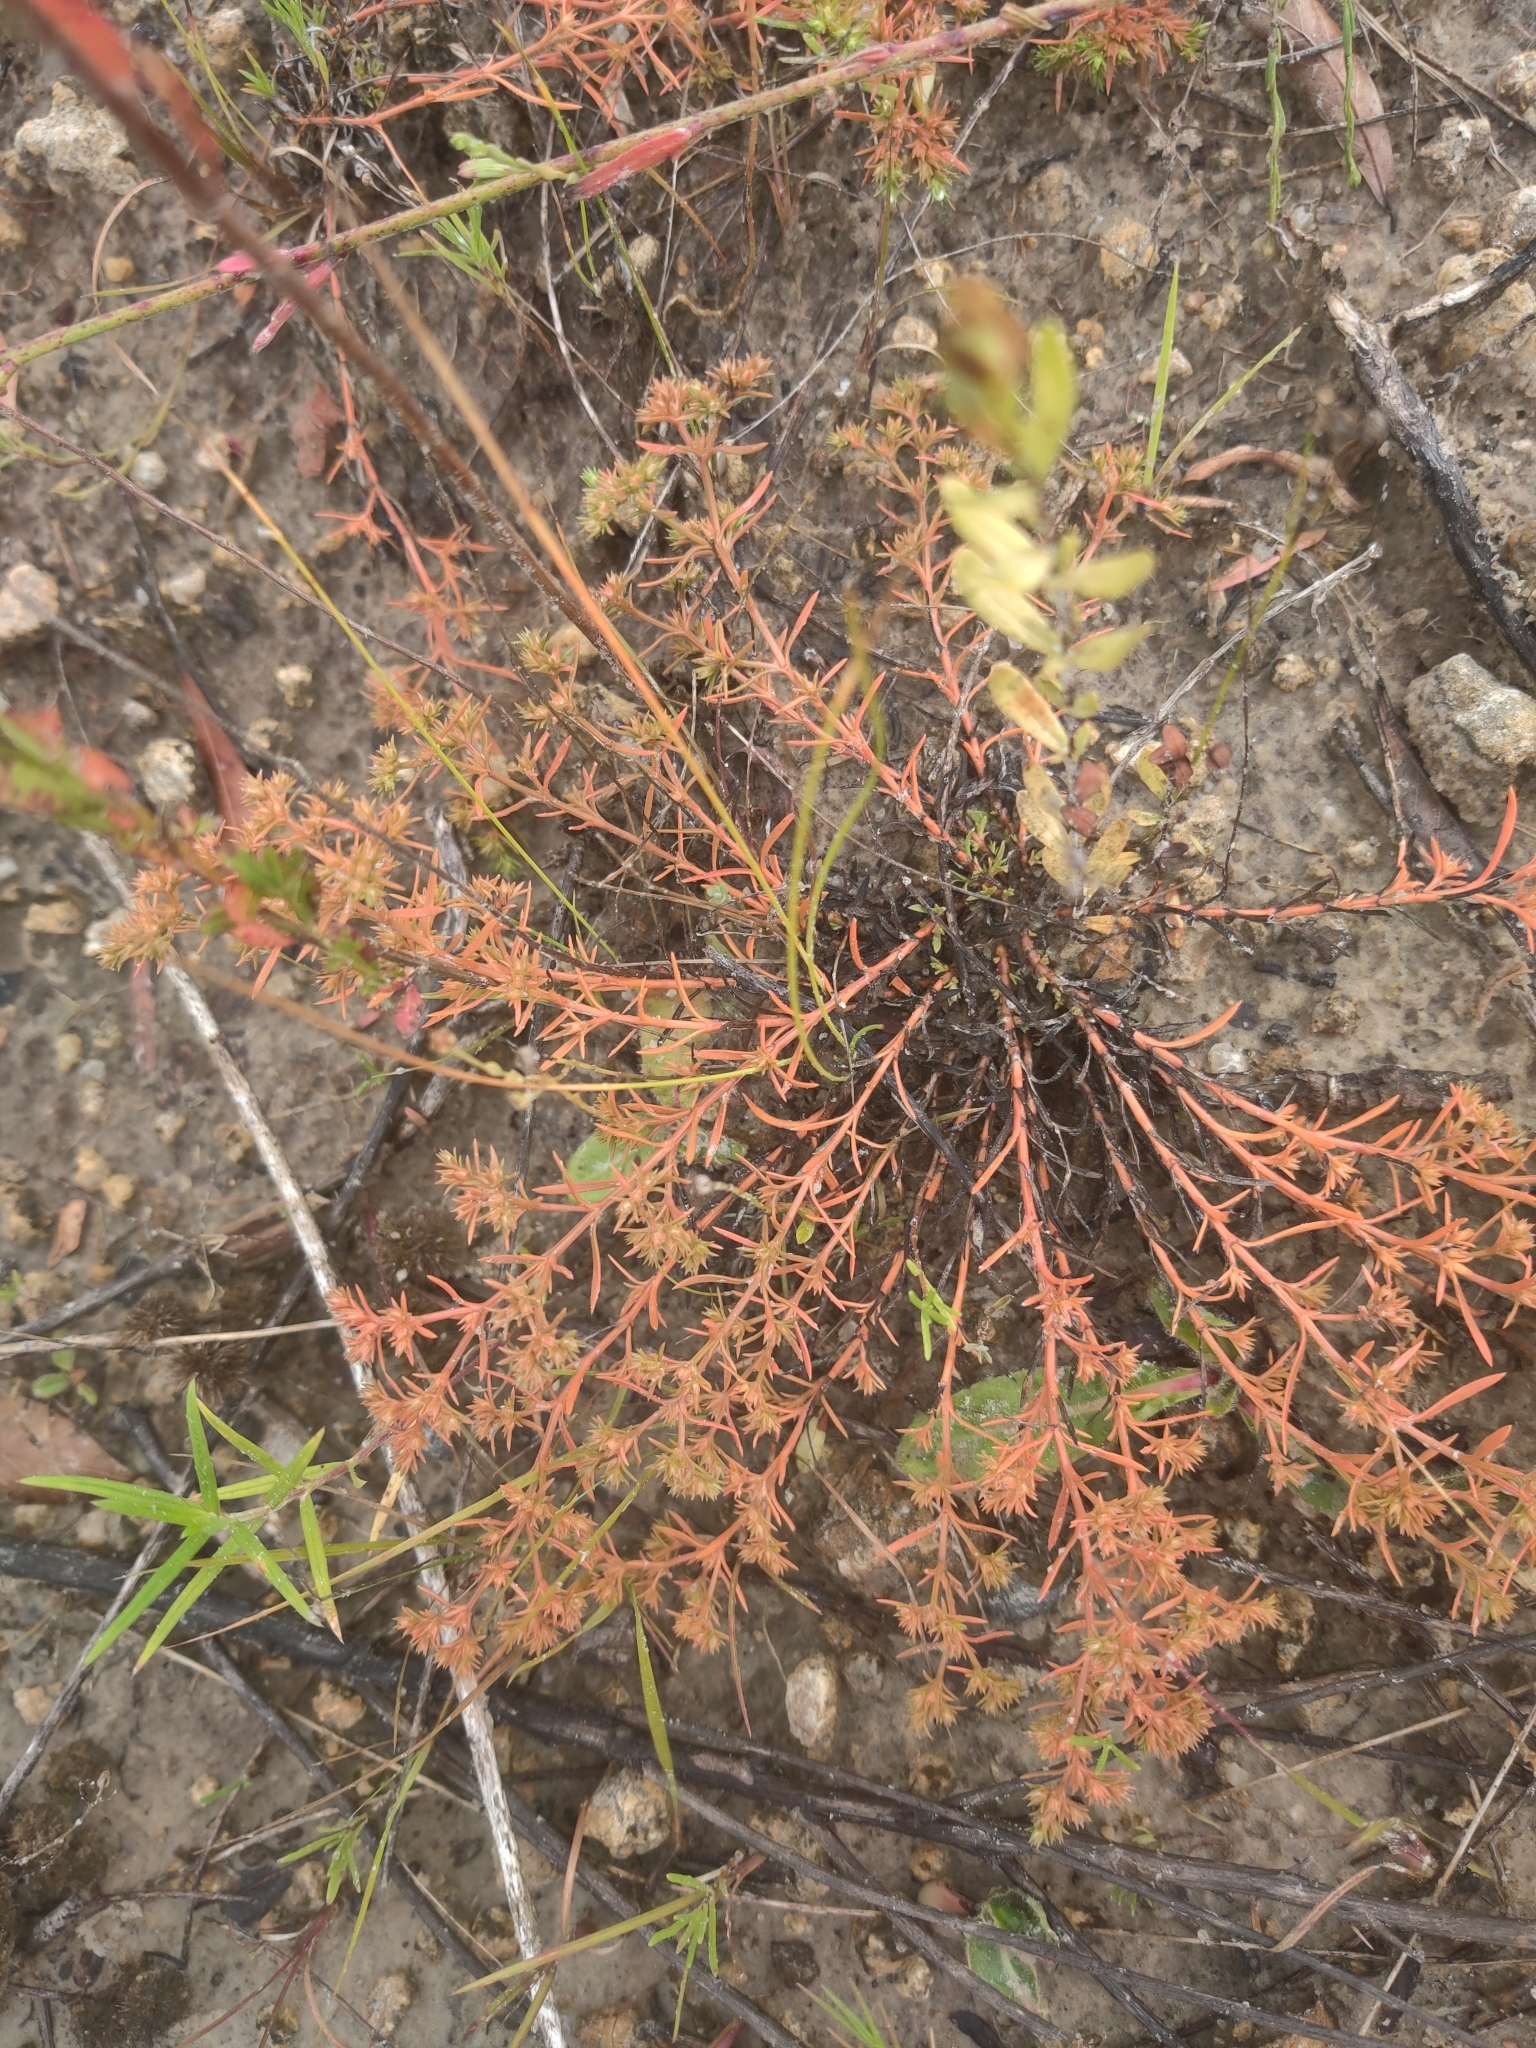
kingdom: Plantae
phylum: Tracheophyta
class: Magnoliopsida
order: Lamiales
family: Tetrachondraceae
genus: Polypremum
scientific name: Polypremum procumbens
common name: Juniper-leaf
